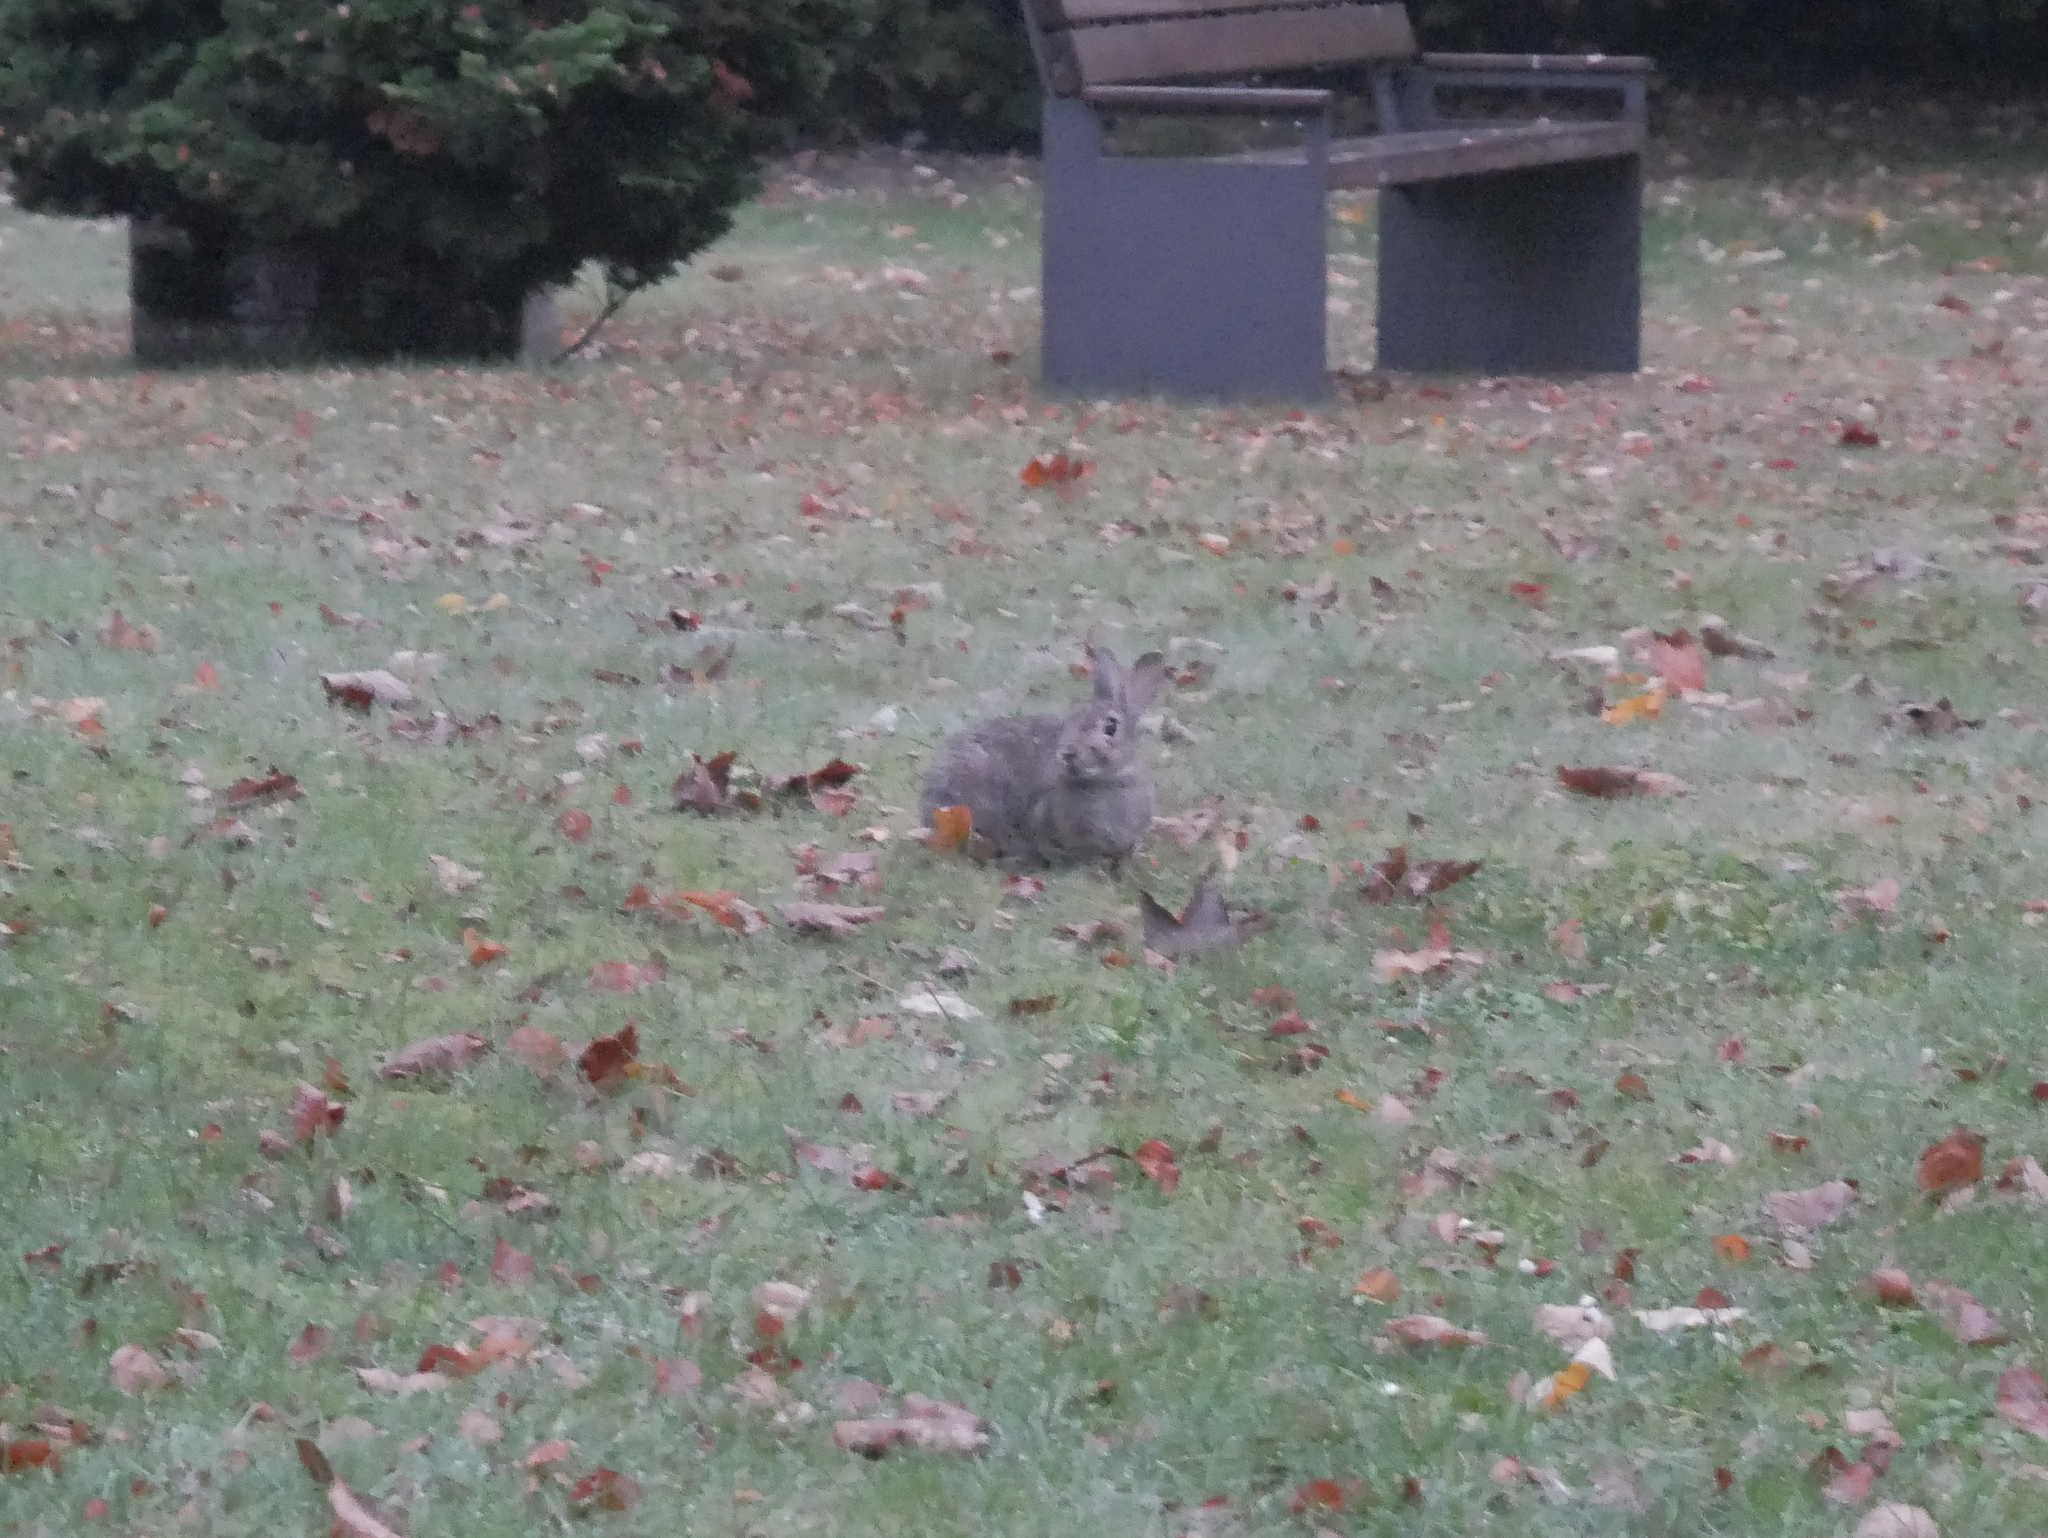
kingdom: Animalia
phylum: Chordata
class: Mammalia
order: Lagomorpha
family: Leporidae
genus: Oryctolagus
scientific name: Oryctolagus cuniculus
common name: European rabbit
